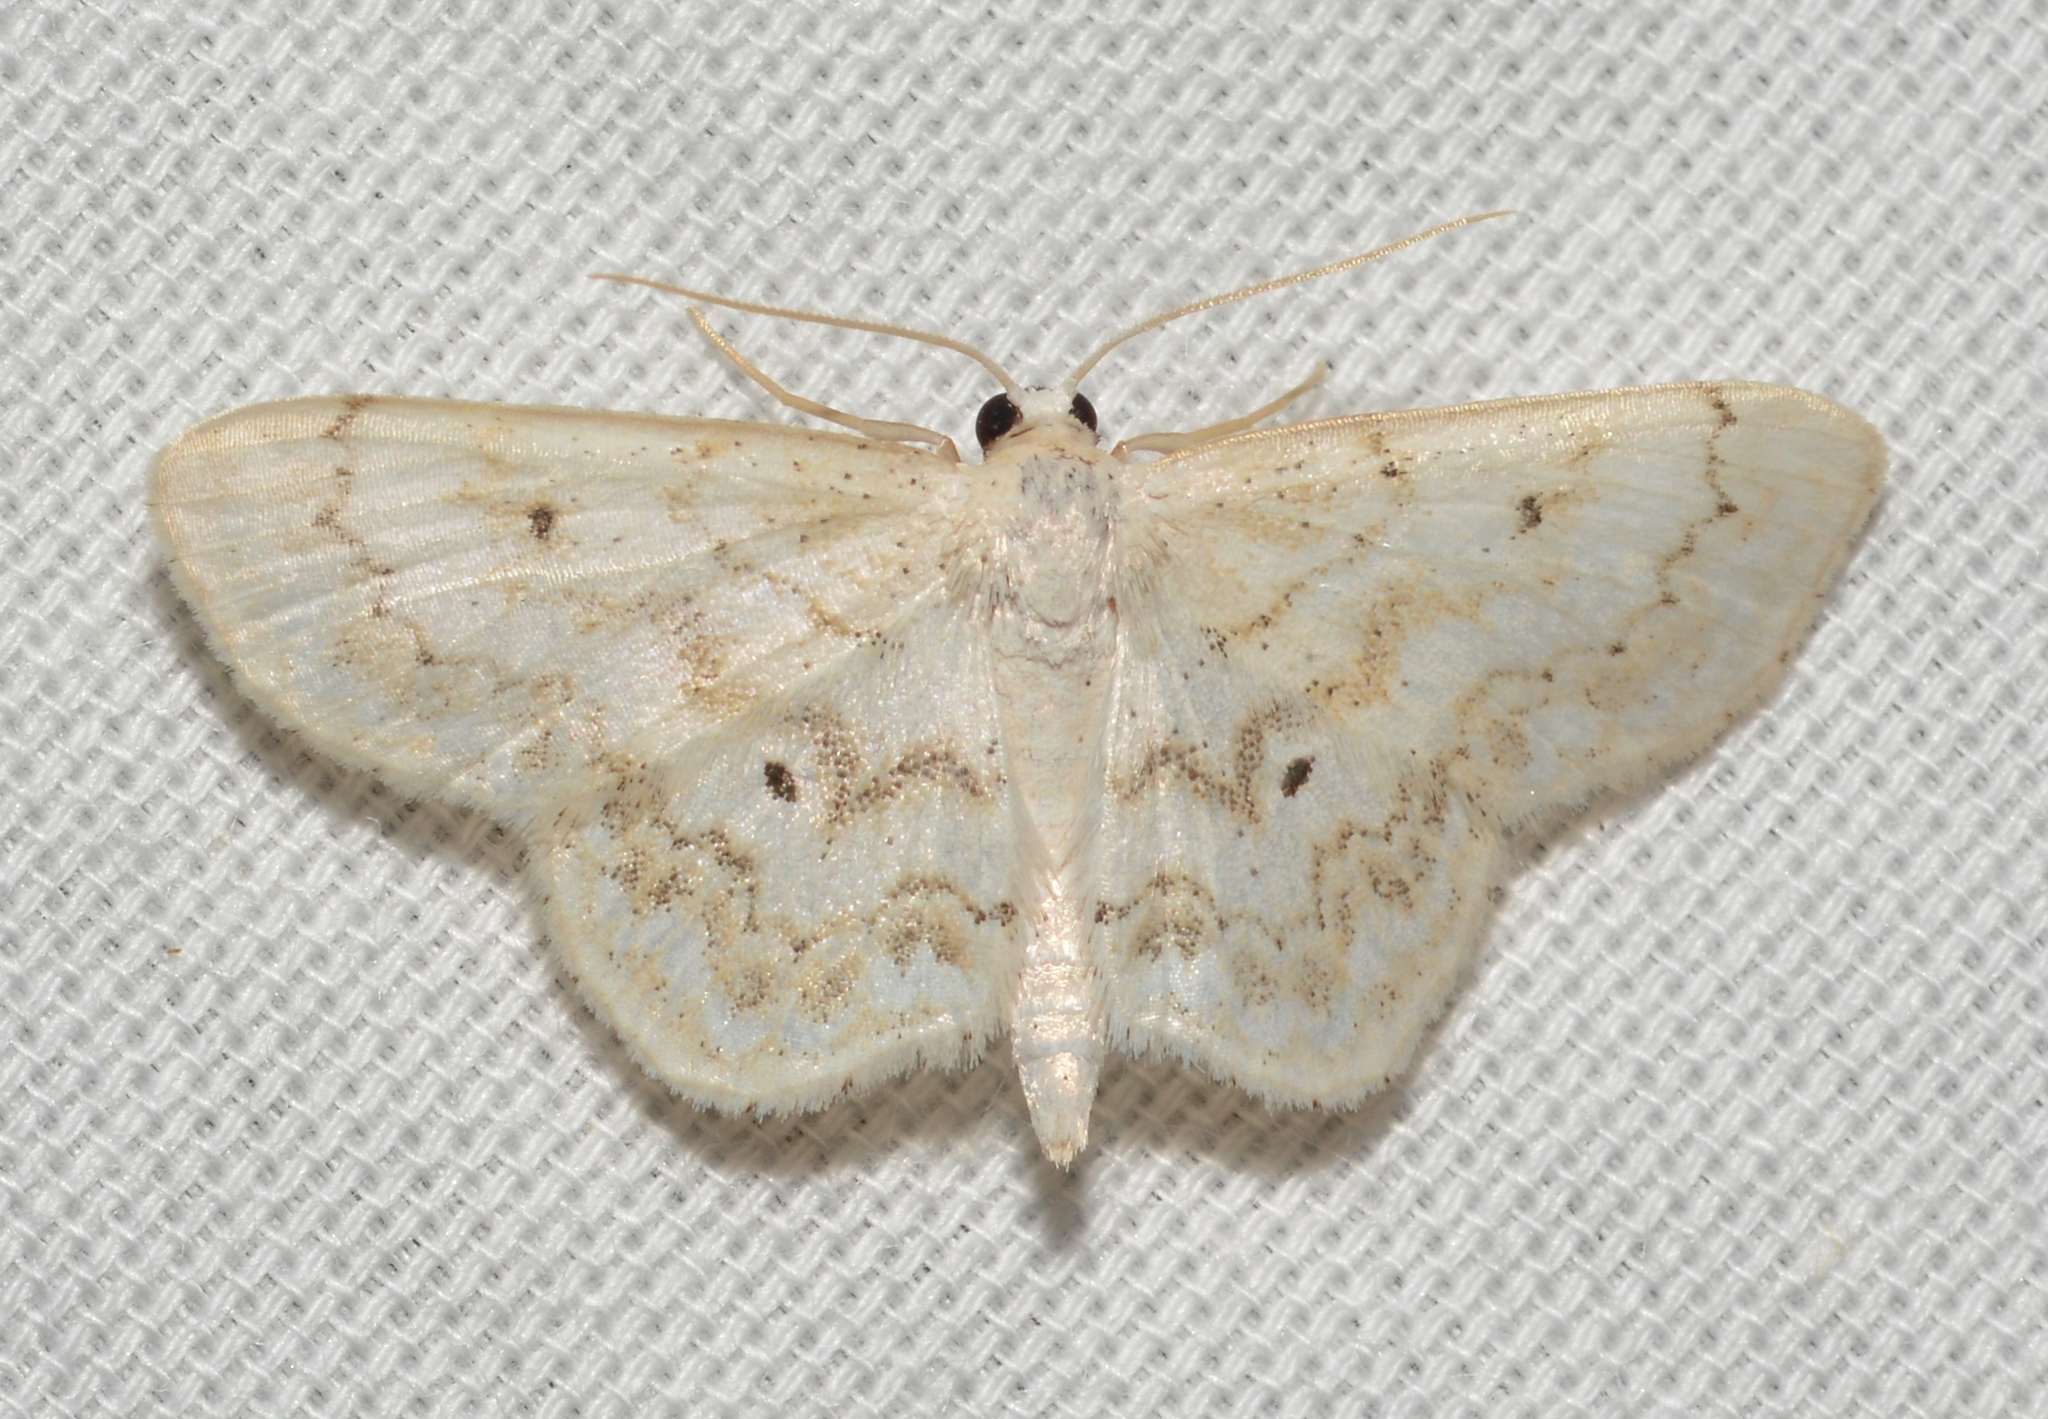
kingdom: Animalia
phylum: Arthropoda
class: Insecta
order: Lepidoptera
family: Geometridae
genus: Idaea
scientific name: Idaea obfusaria
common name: Rippled wave
